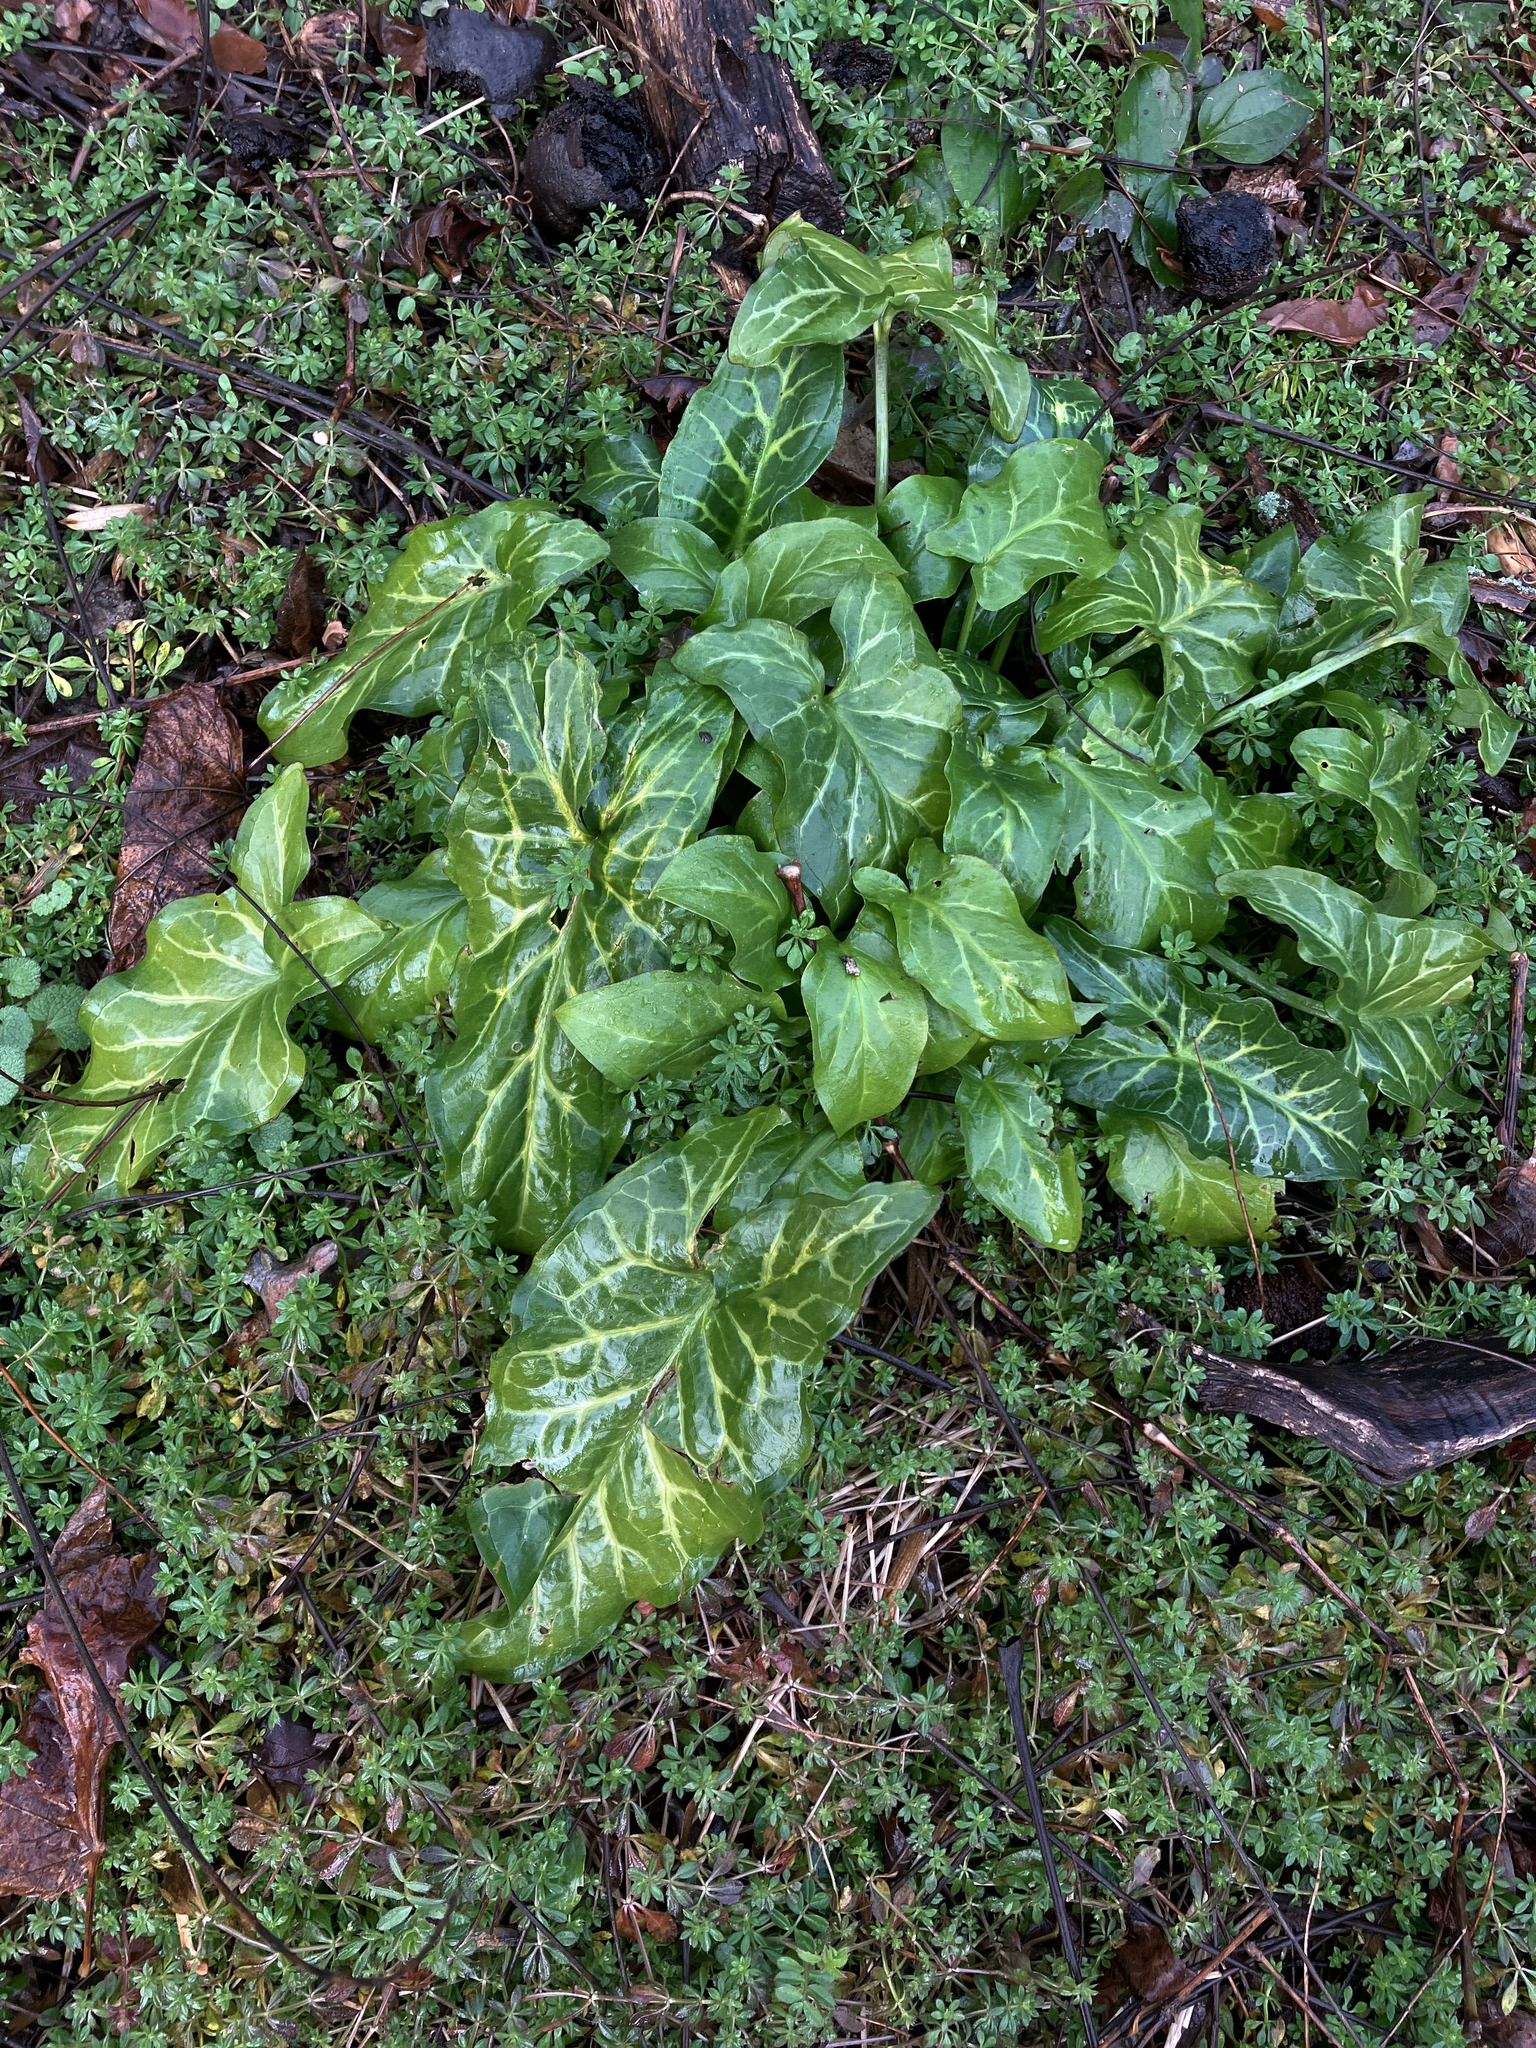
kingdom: Plantae
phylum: Tracheophyta
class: Liliopsida
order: Alismatales
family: Araceae
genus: Arum
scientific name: Arum italicum
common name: Italian lords-and-ladies
